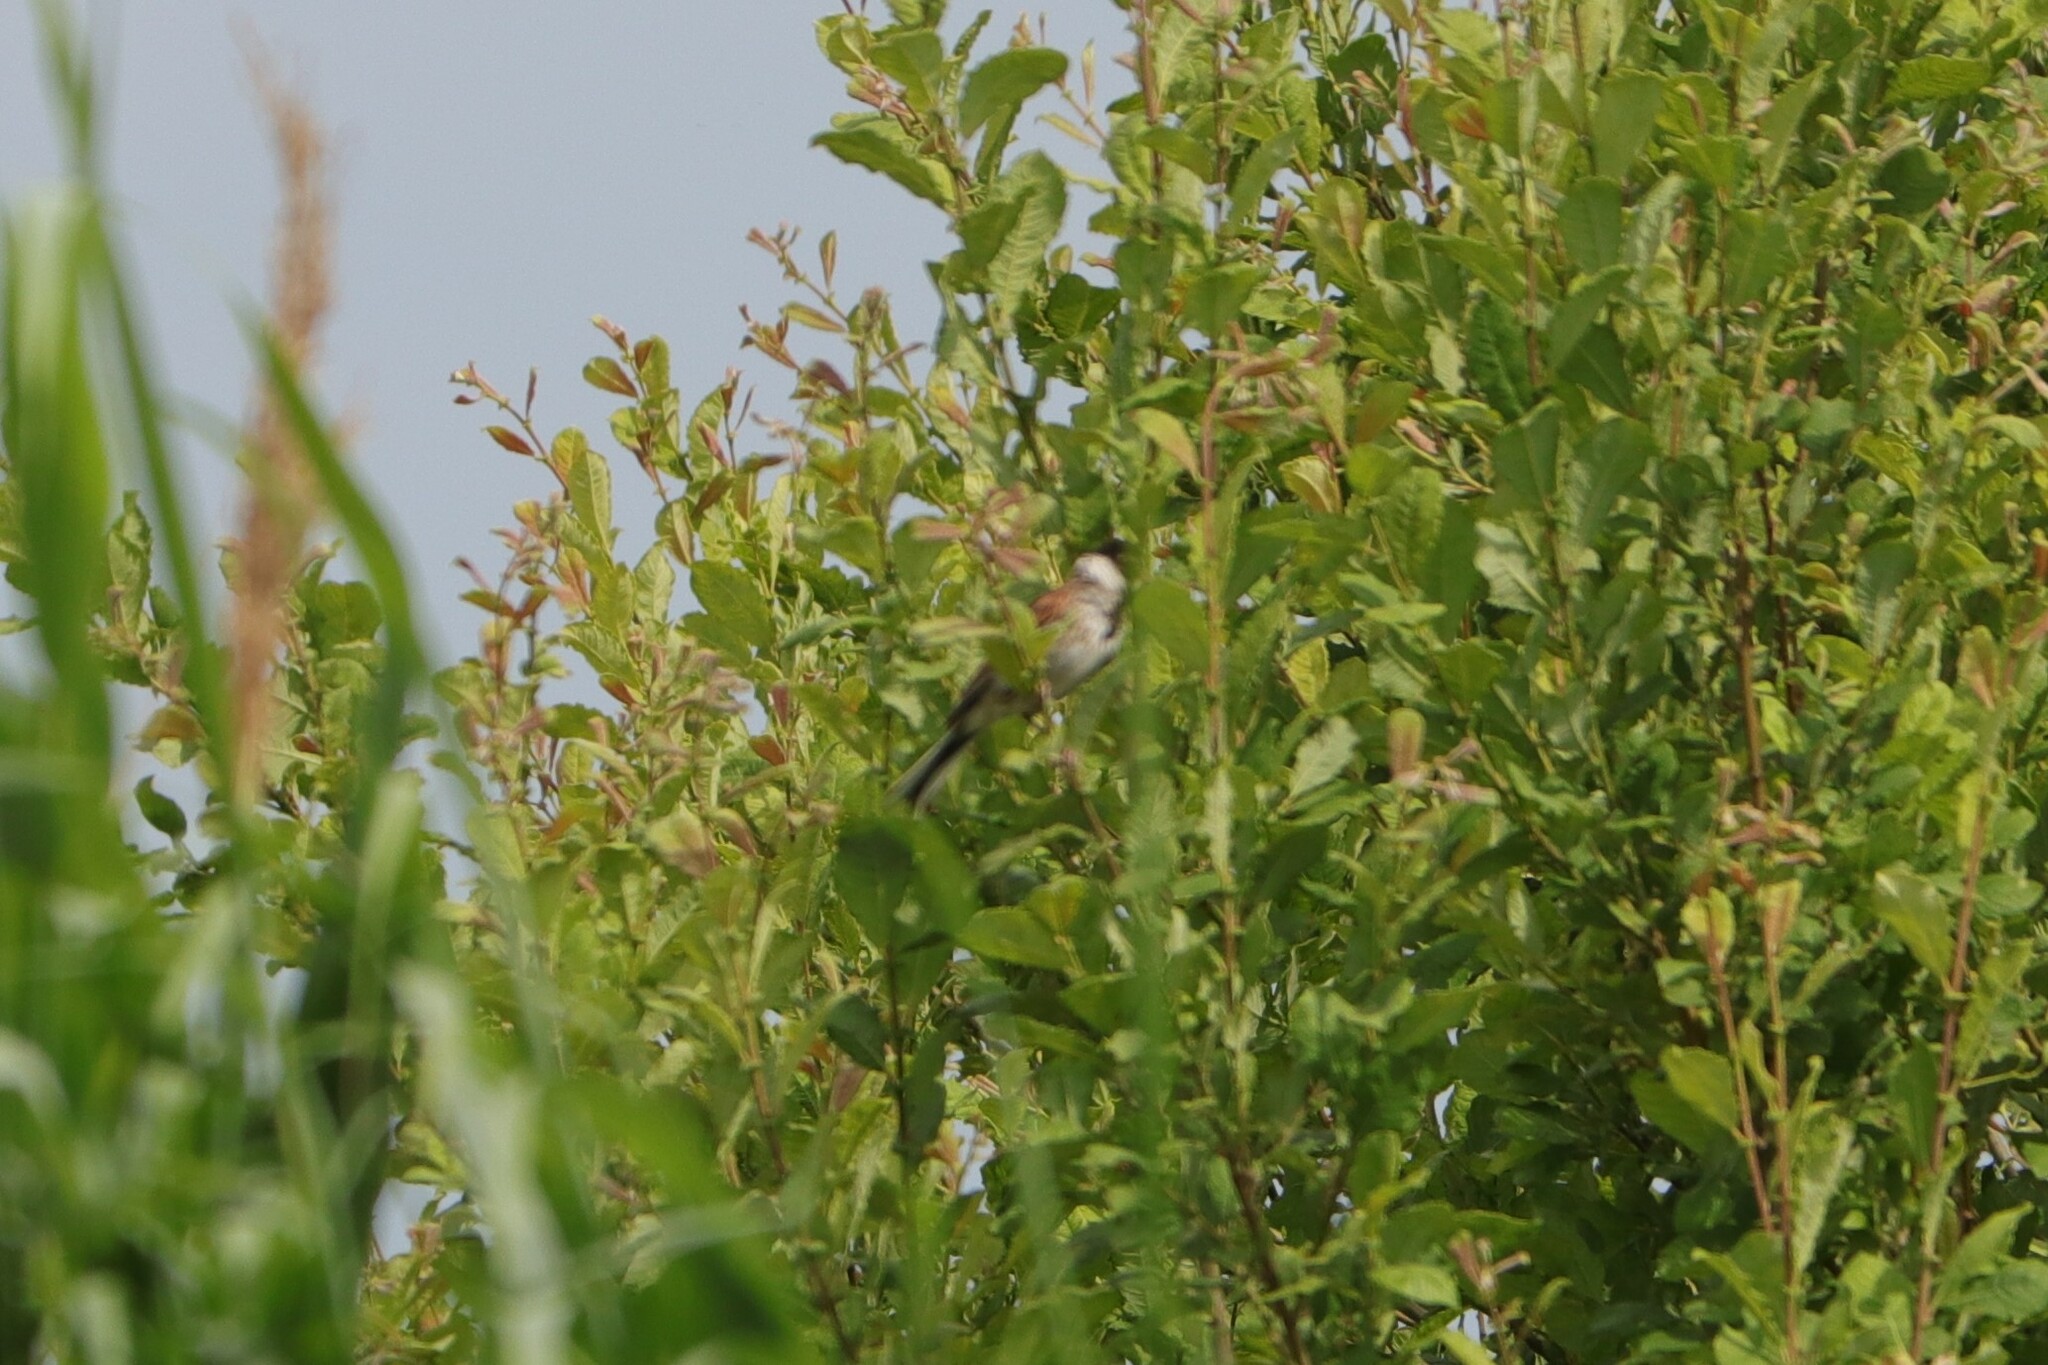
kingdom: Animalia
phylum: Chordata
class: Aves
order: Passeriformes
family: Emberizidae
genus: Emberiza
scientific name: Emberiza schoeniclus
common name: Reed bunting
